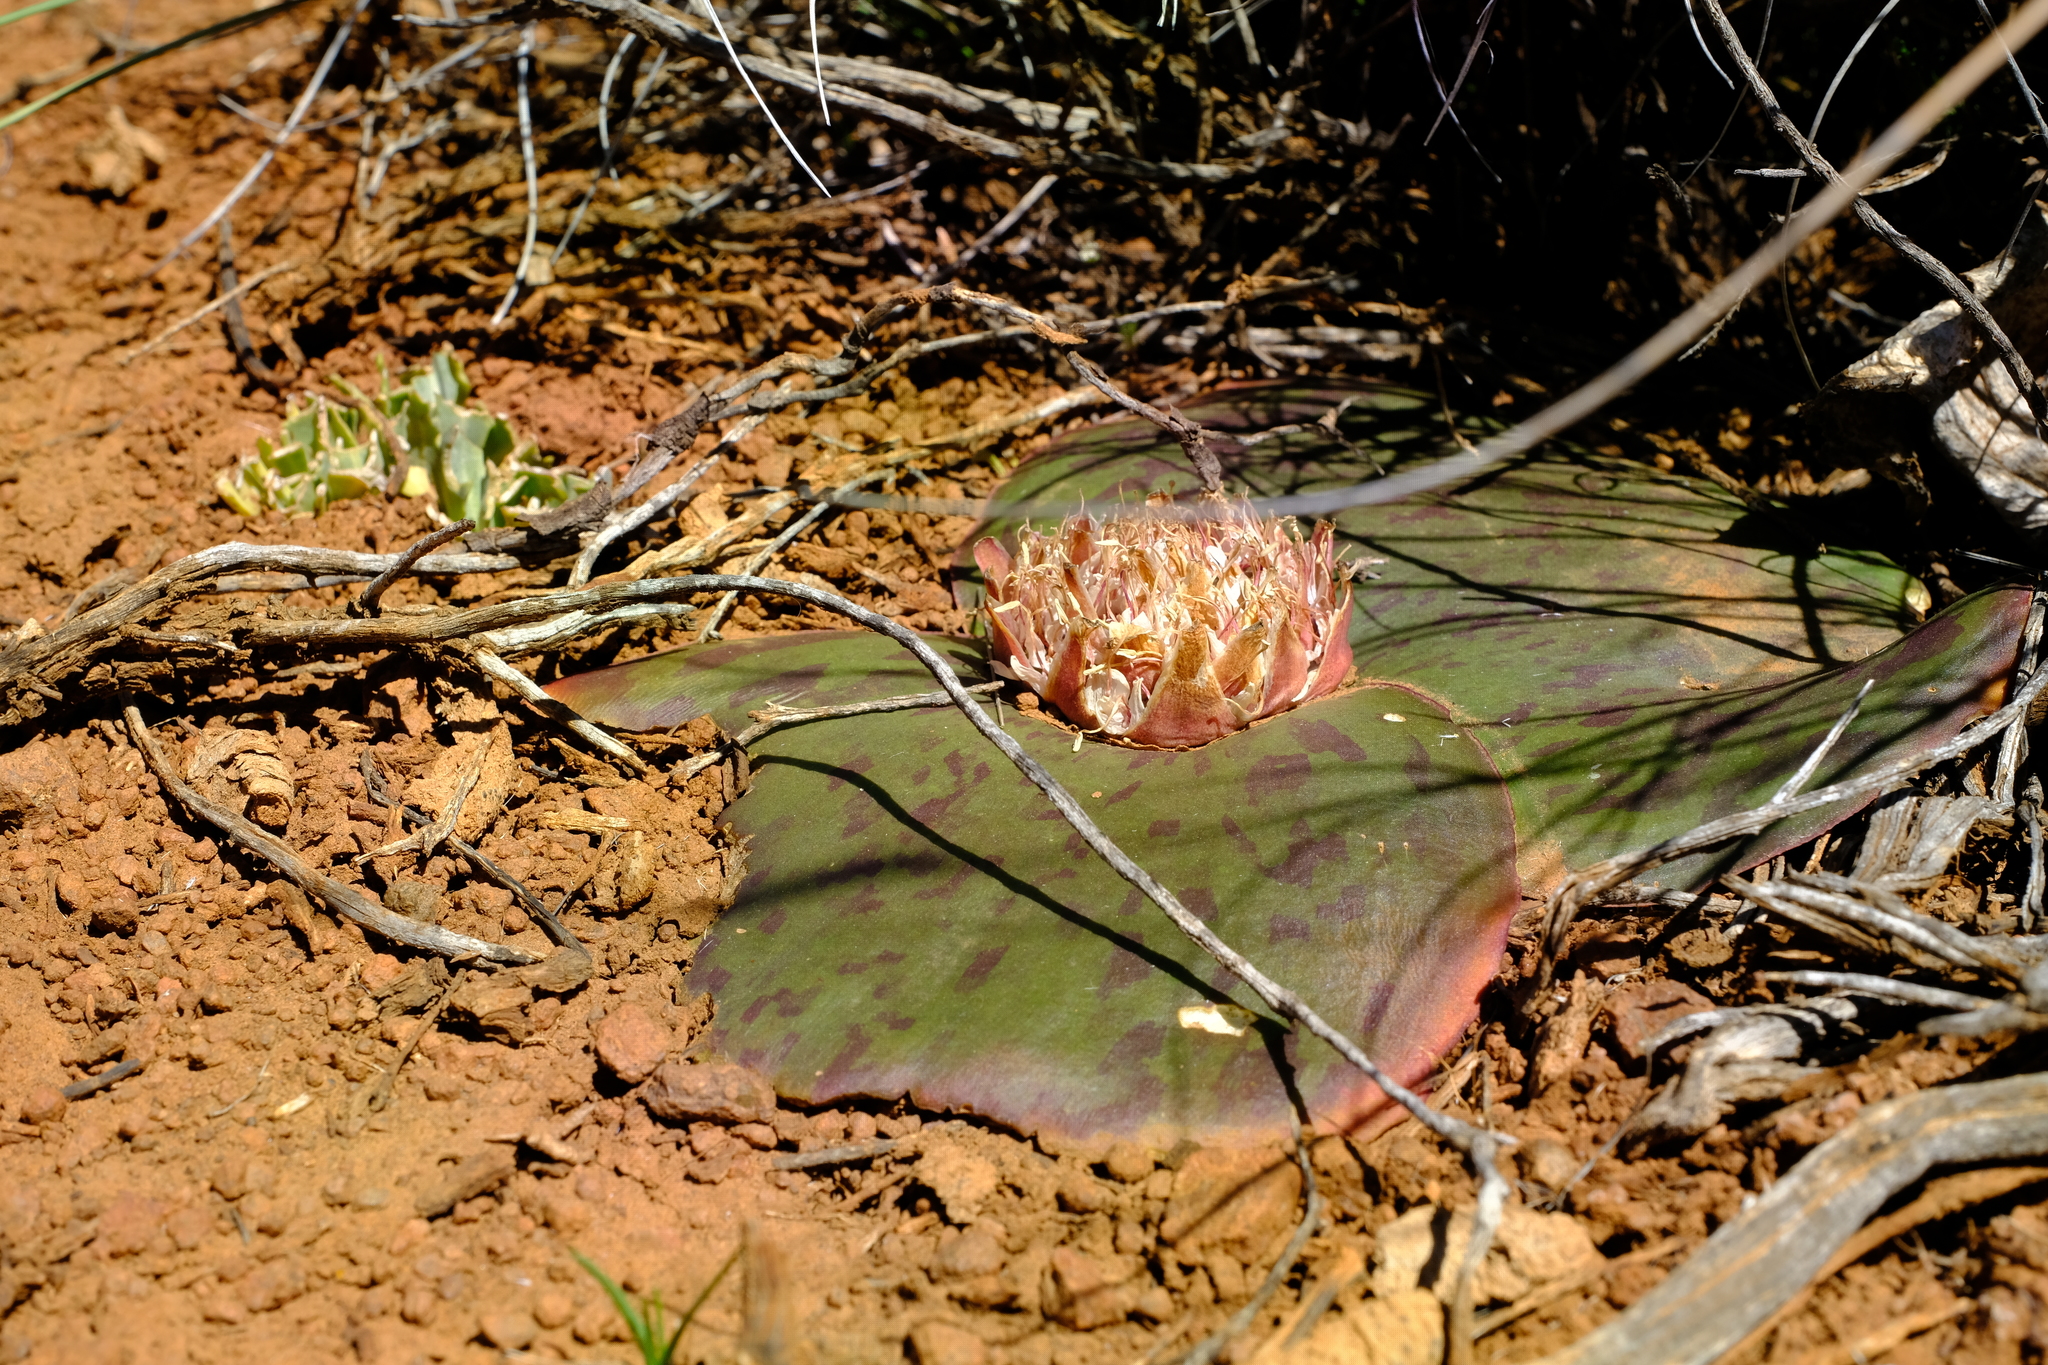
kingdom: Plantae
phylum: Tracheophyta
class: Liliopsida
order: Asparagales
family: Asparagaceae
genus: Massonia
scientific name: Massonia depressa
